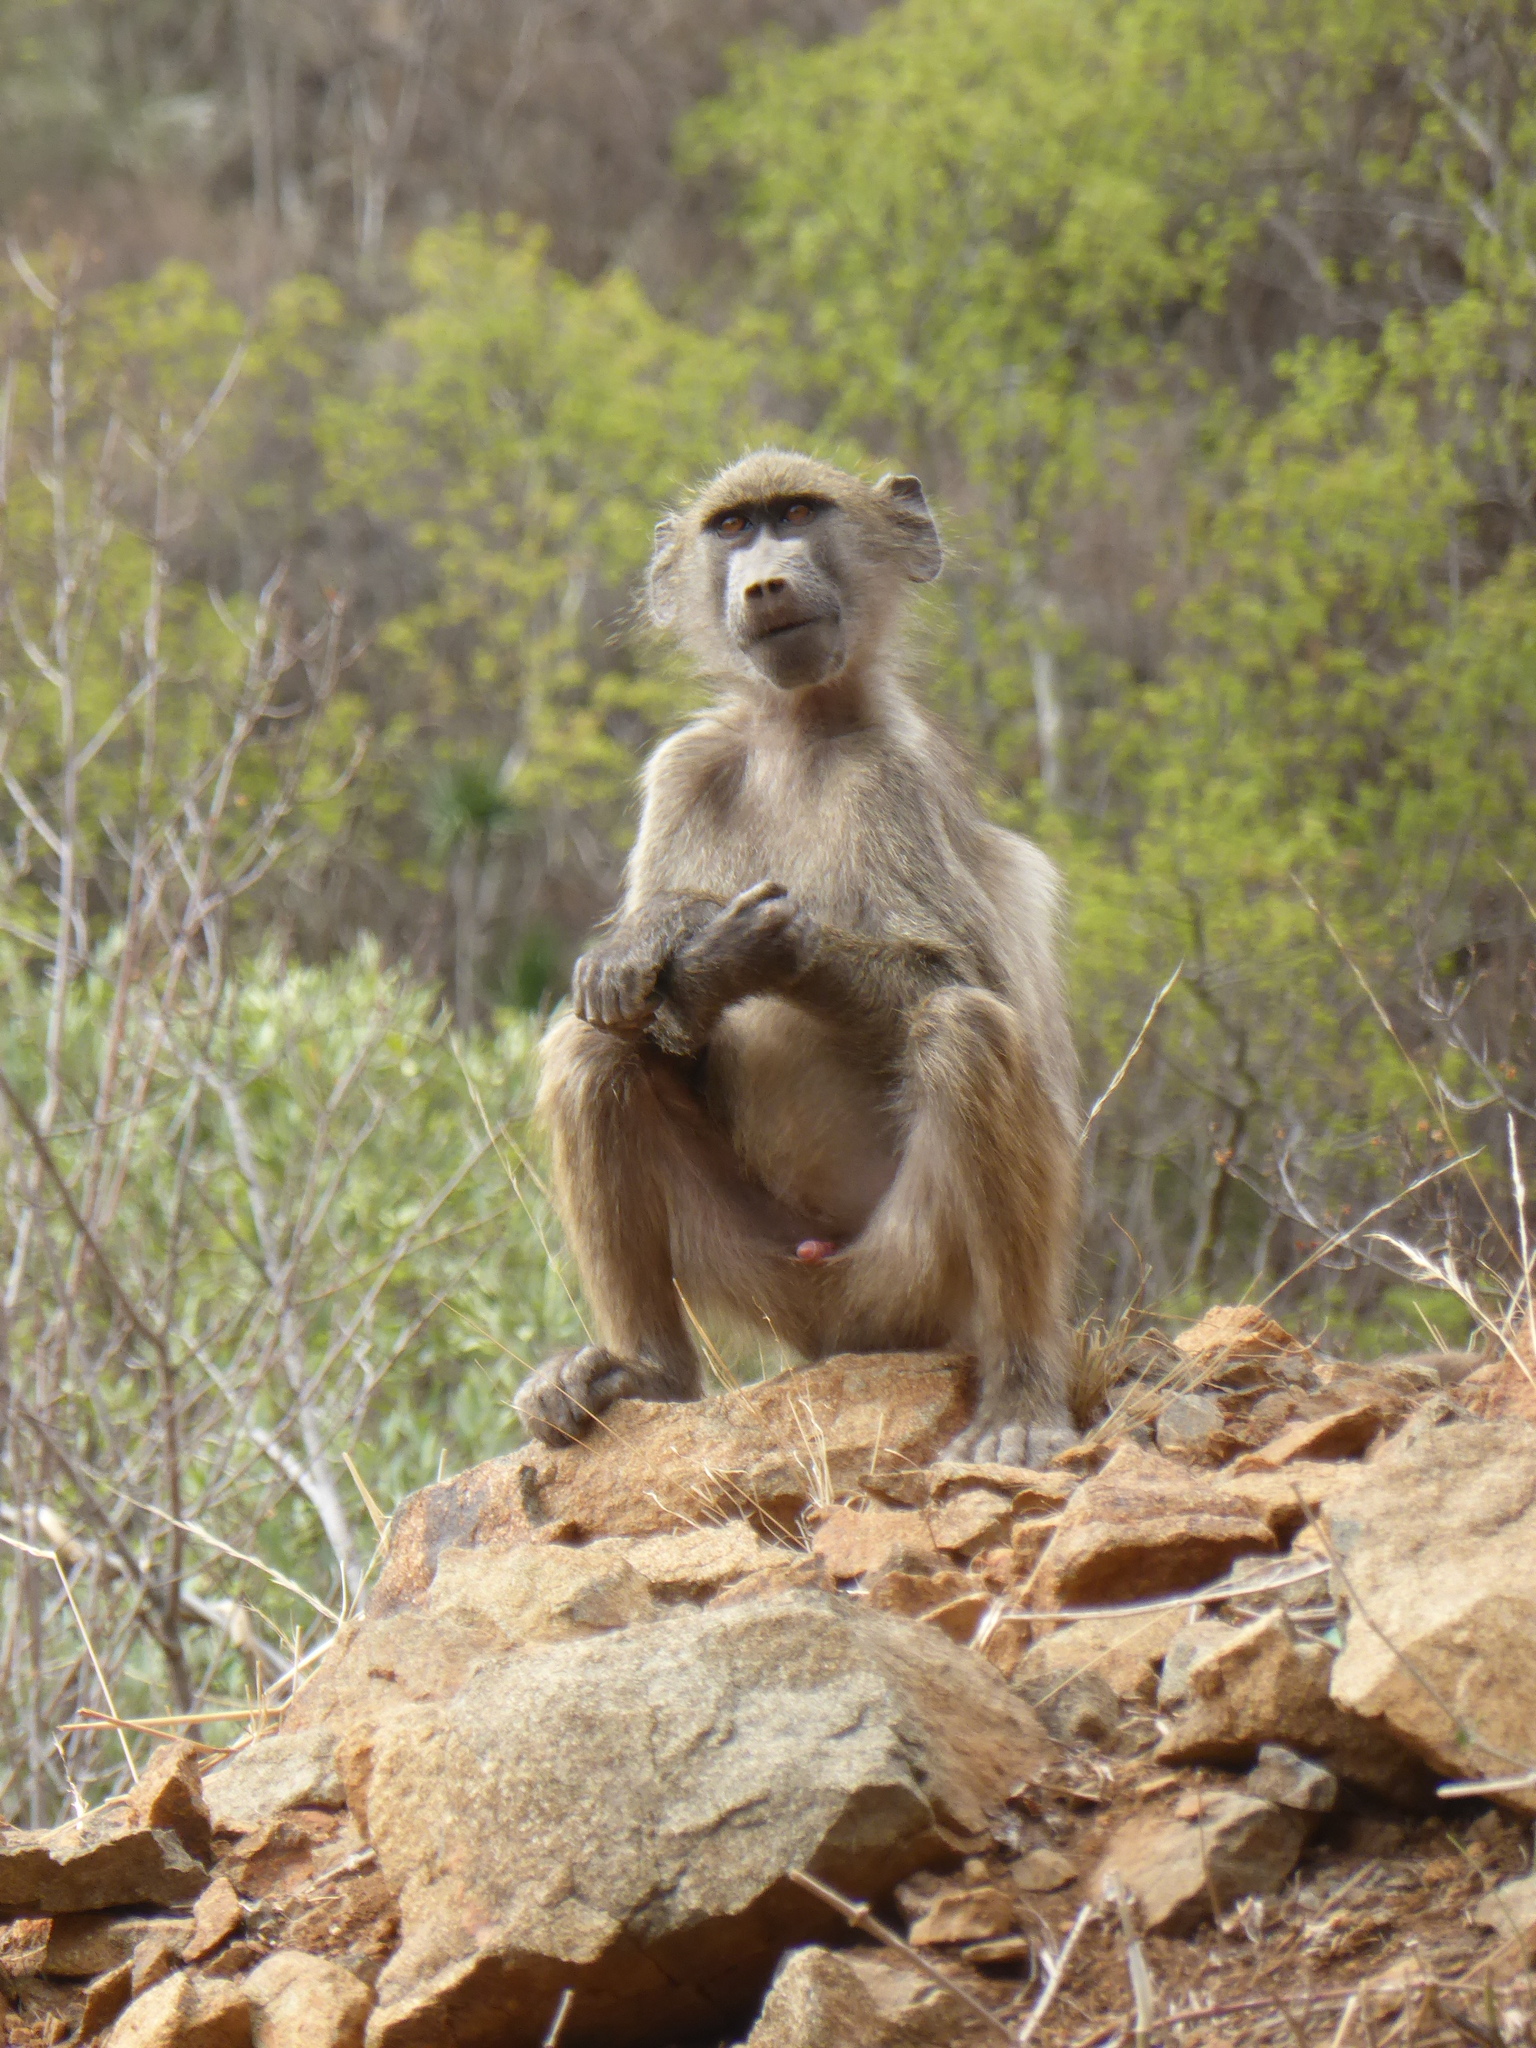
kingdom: Animalia
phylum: Chordata
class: Mammalia
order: Primates
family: Cercopithecidae
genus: Papio
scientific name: Papio ursinus
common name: Chacma baboon
